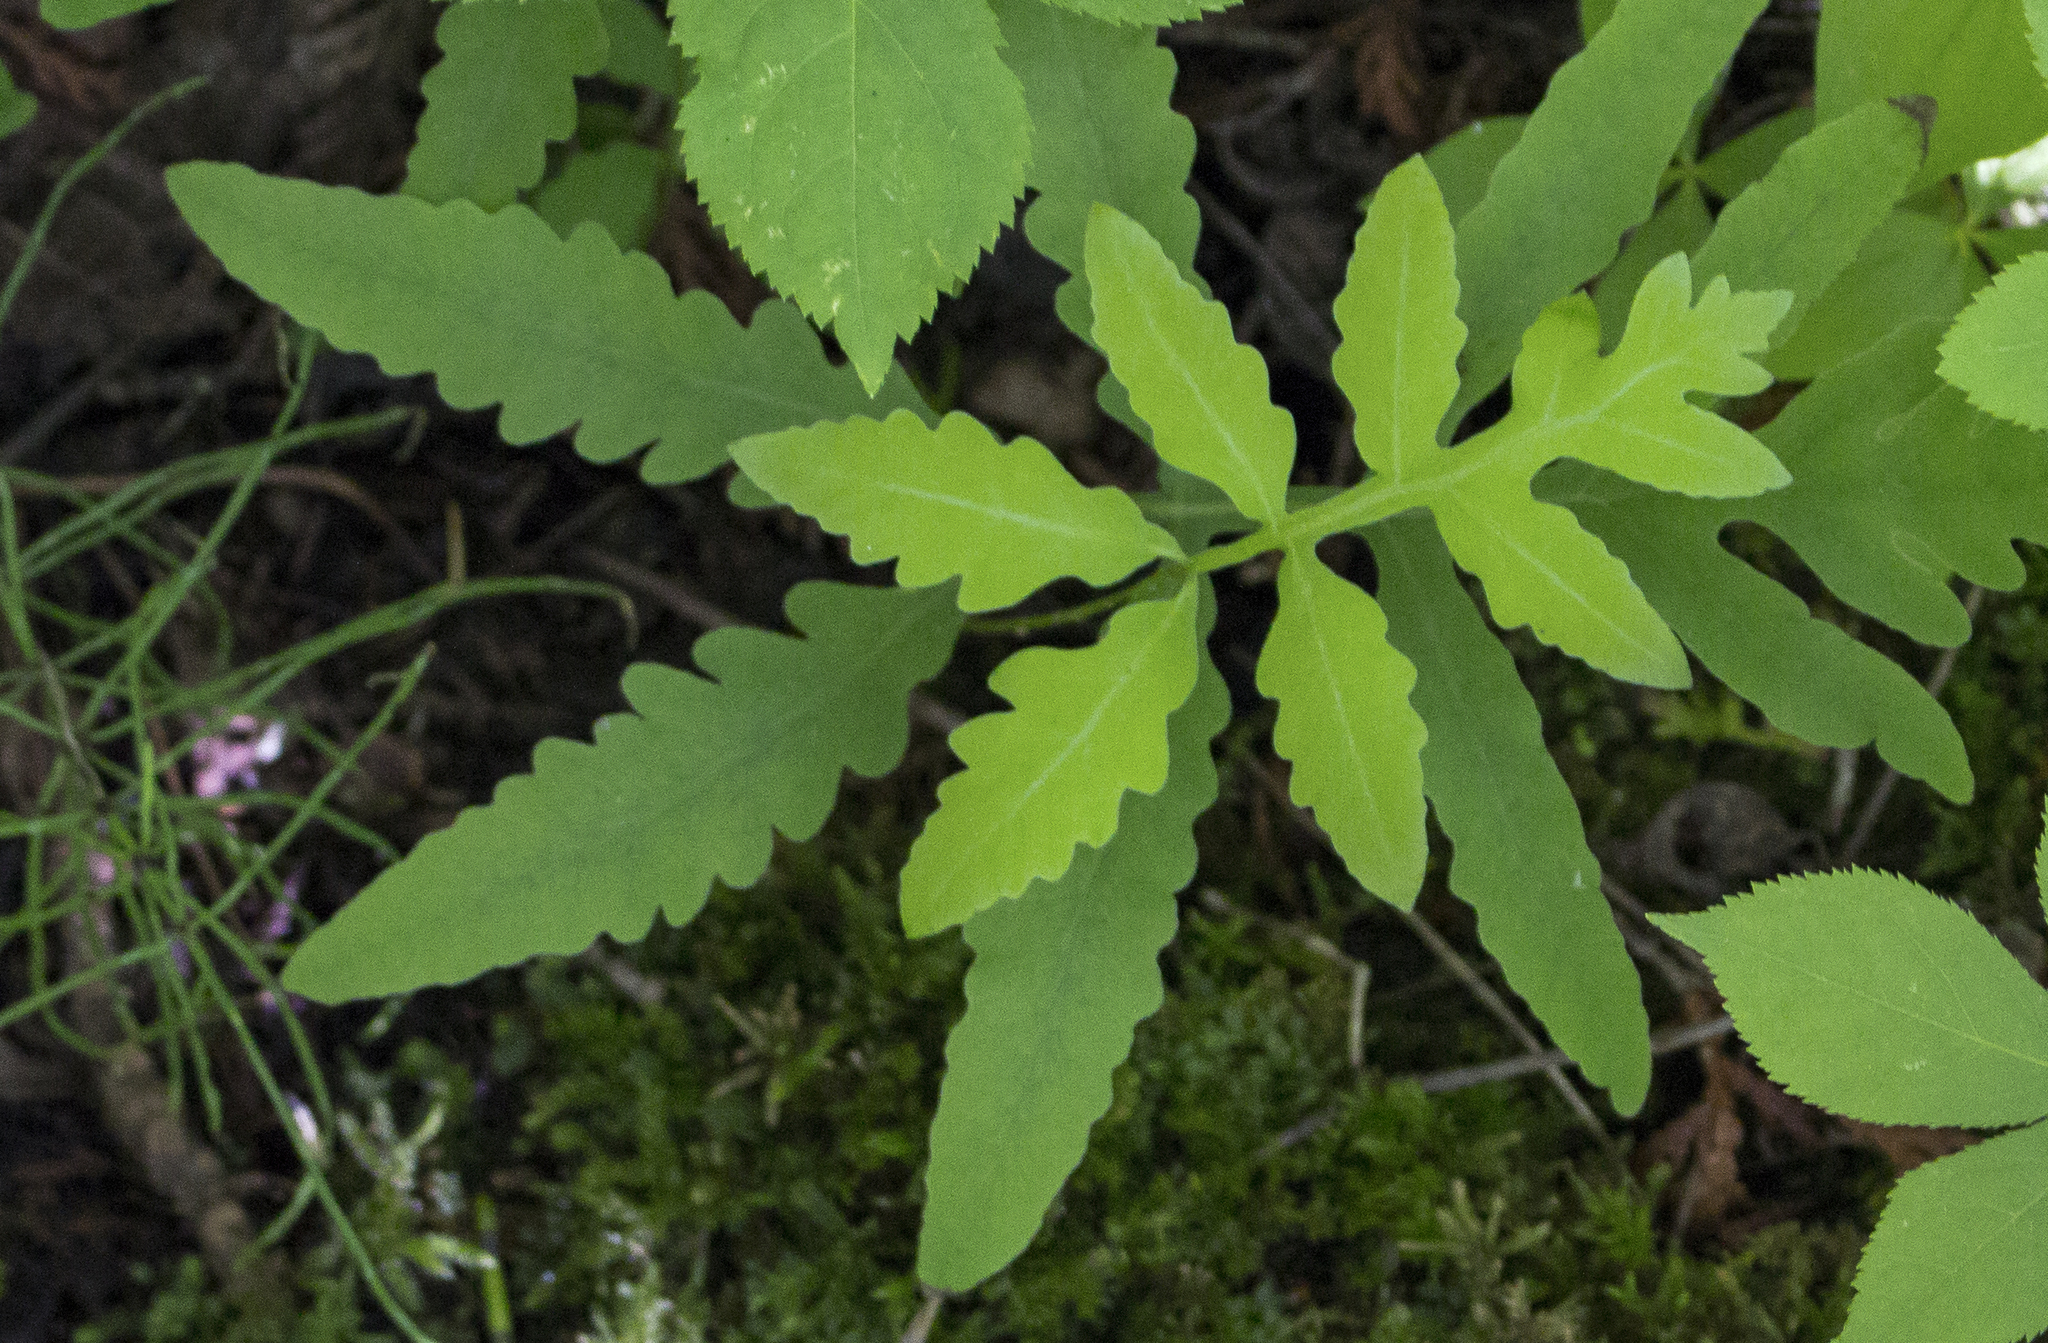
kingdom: Plantae
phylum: Tracheophyta
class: Polypodiopsida
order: Polypodiales
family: Onocleaceae
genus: Onoclea
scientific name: Onoclea sensibilis
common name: Sensitive fern
